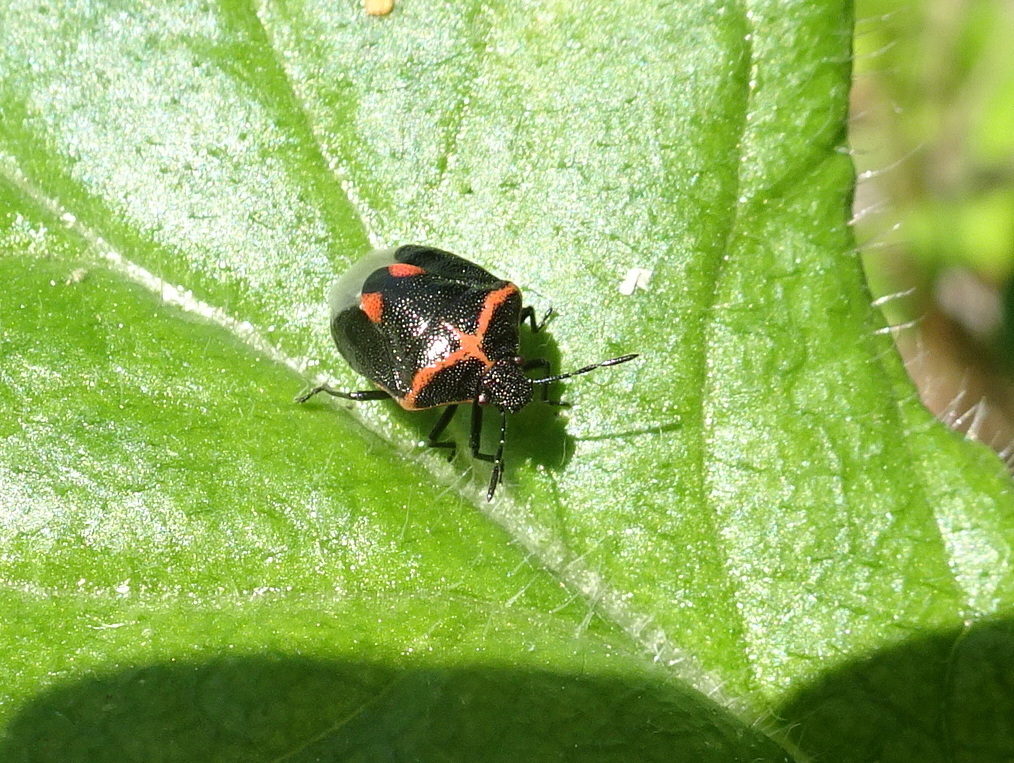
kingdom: Animalia
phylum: Arthropoda
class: Insecta
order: Hemiptera
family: Pentatomidae
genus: Cosmopepla
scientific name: Cosmopepla lintneriana
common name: Twice-stabbed stink bug
